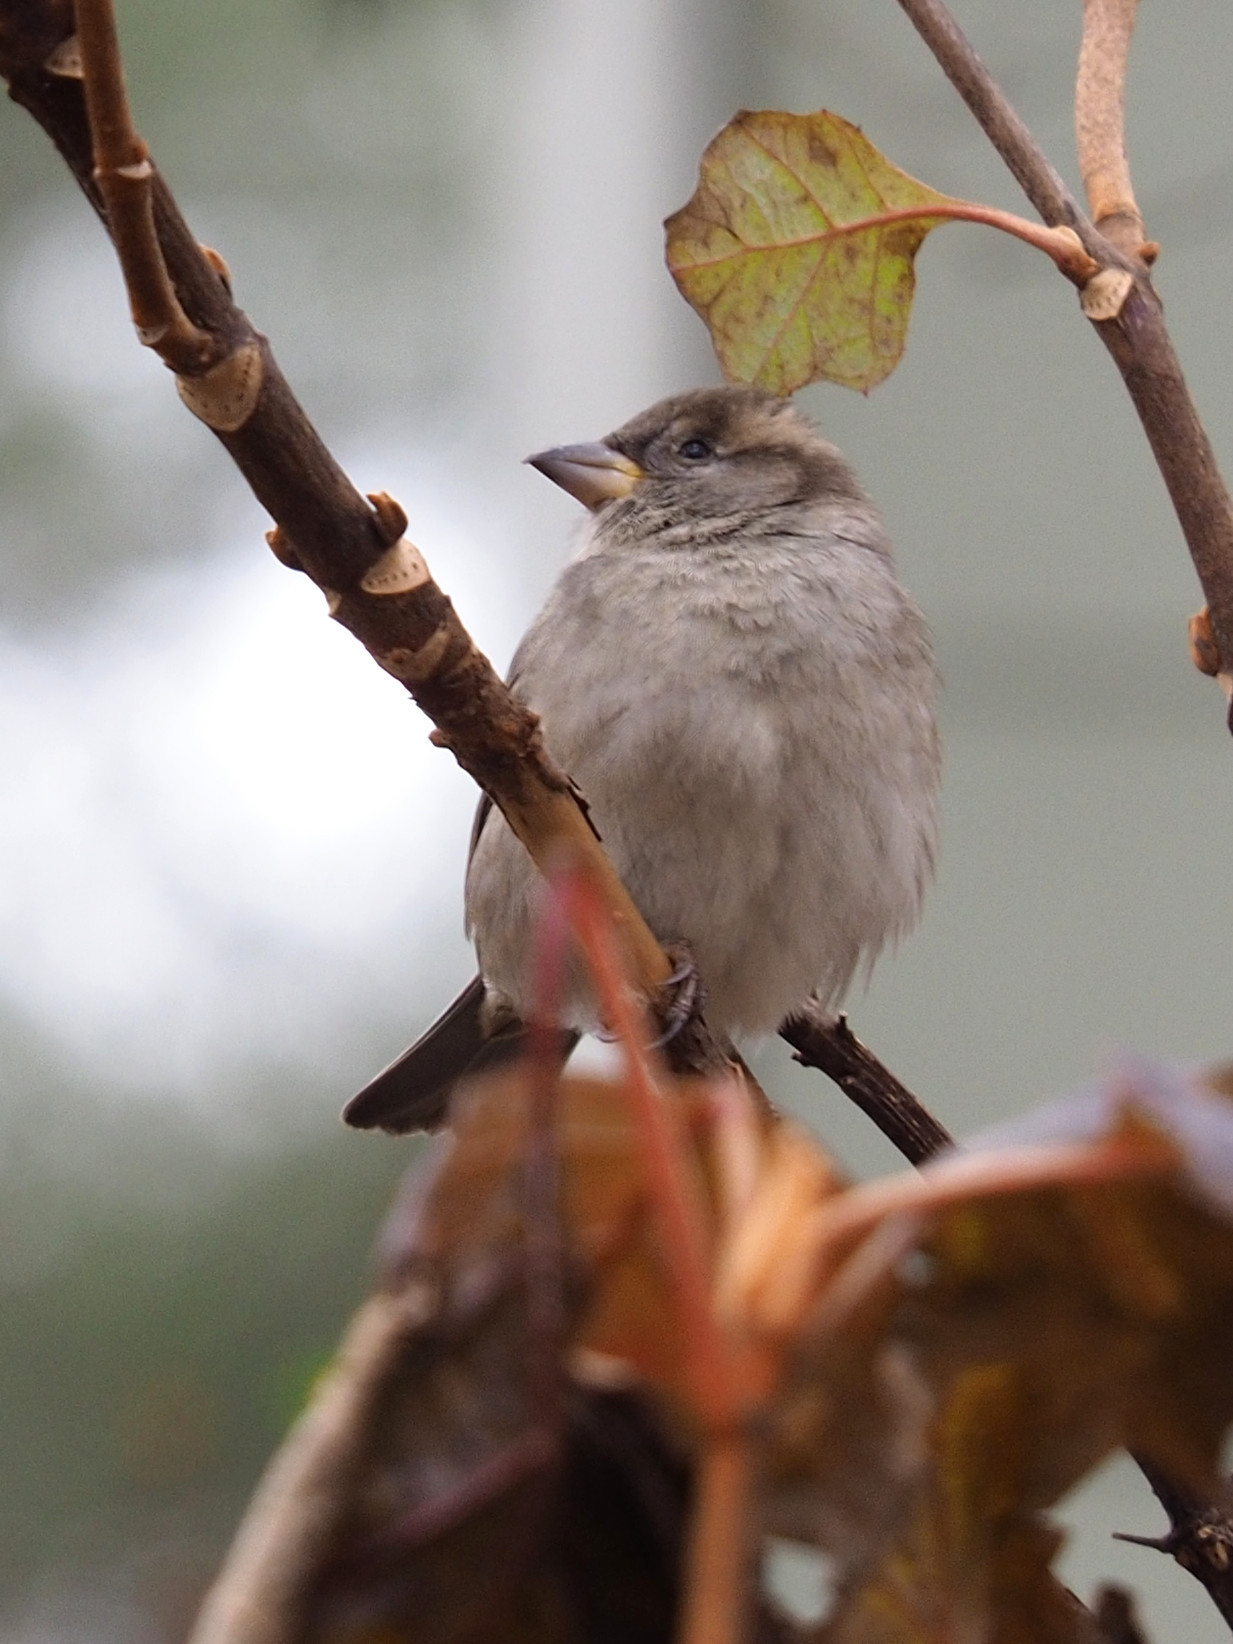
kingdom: Animalia
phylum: Chordata
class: Aves
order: Passeriformes
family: Passeridae
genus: Passer
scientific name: Passer domesticus
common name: House sparrow
